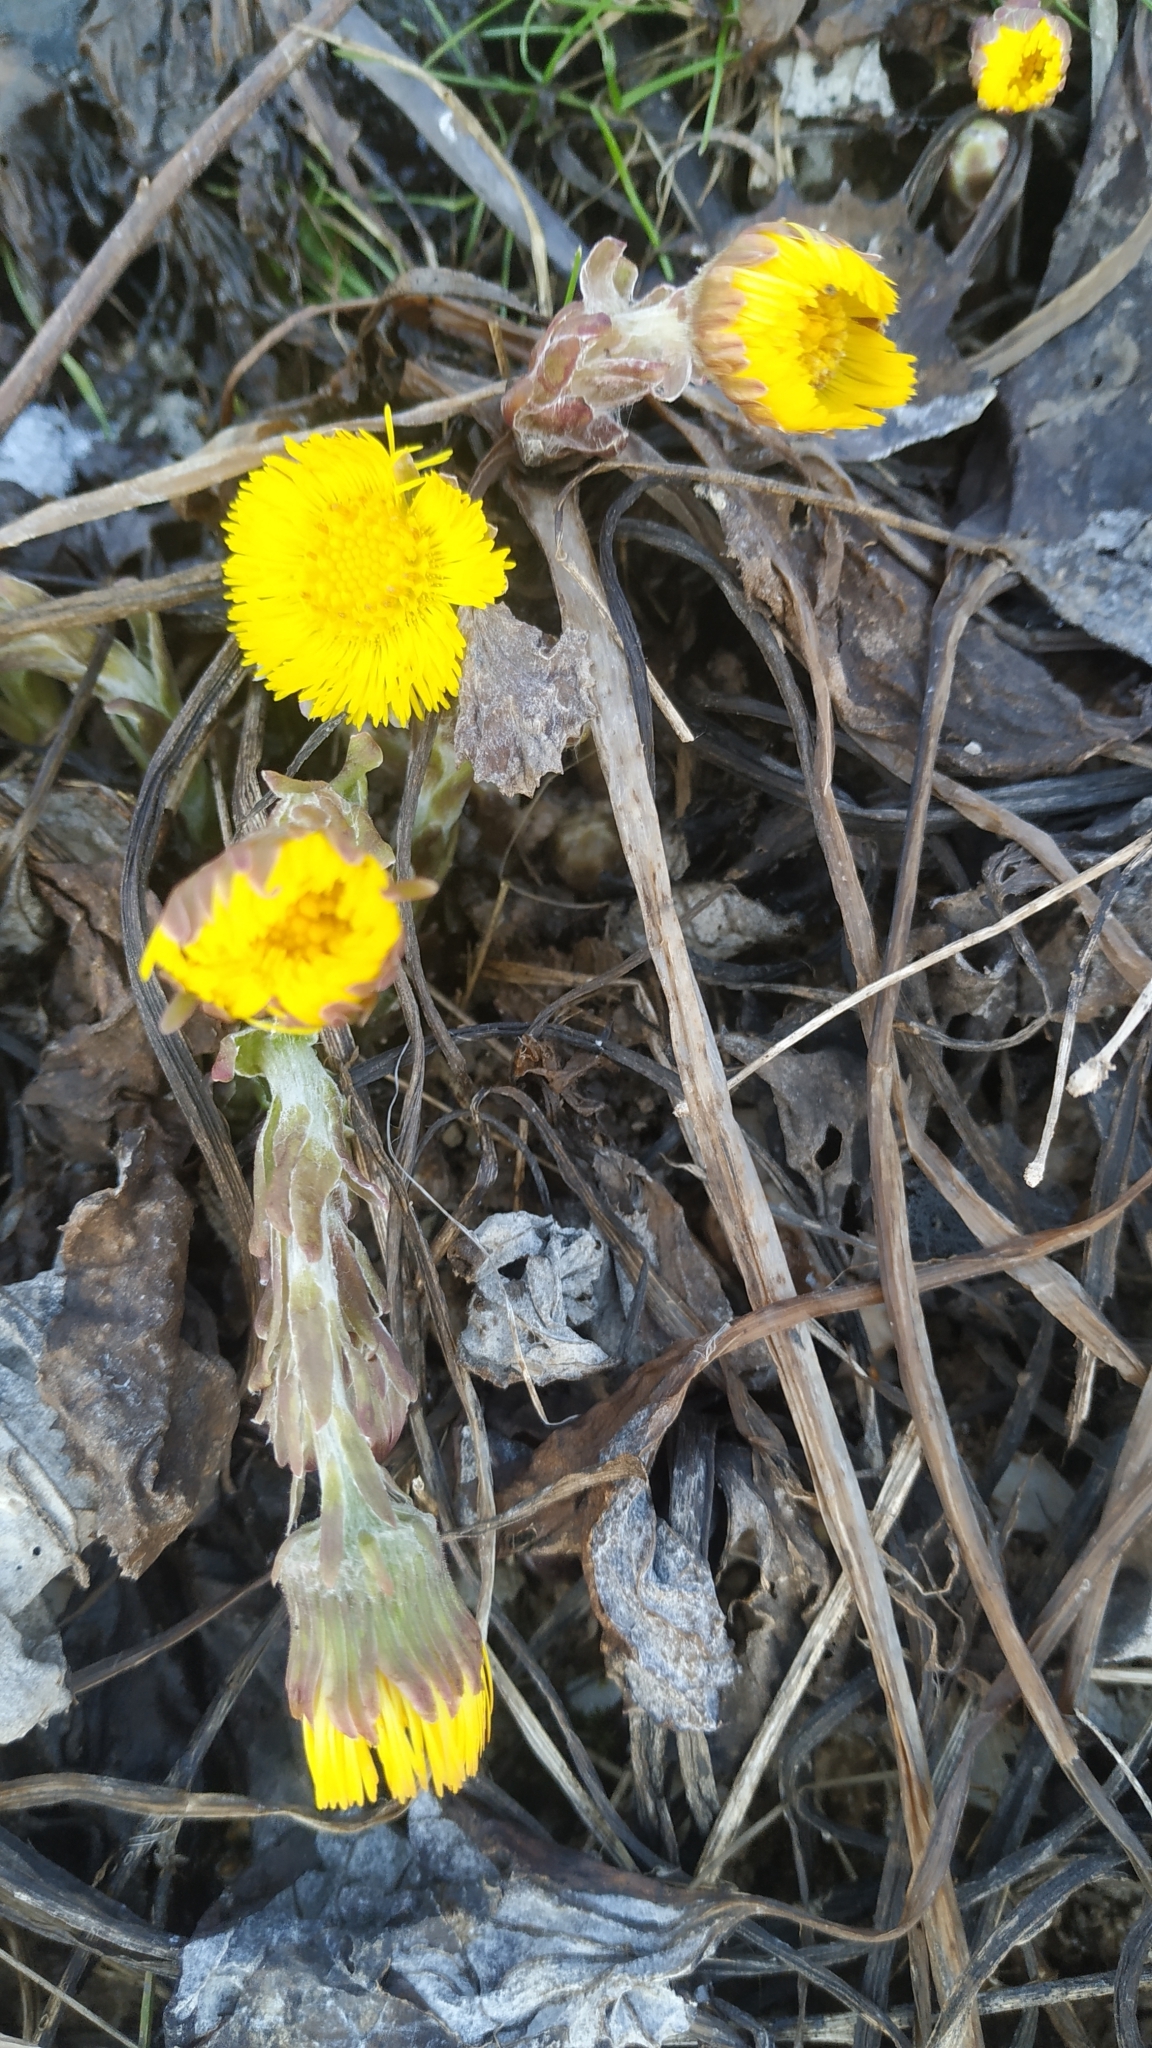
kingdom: Plantae
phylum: Tracheophyta
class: Magnoliopsida
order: Asterales
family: Asteraceae
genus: Tussilago
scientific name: Tussilago farfara
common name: Coltsfoot
